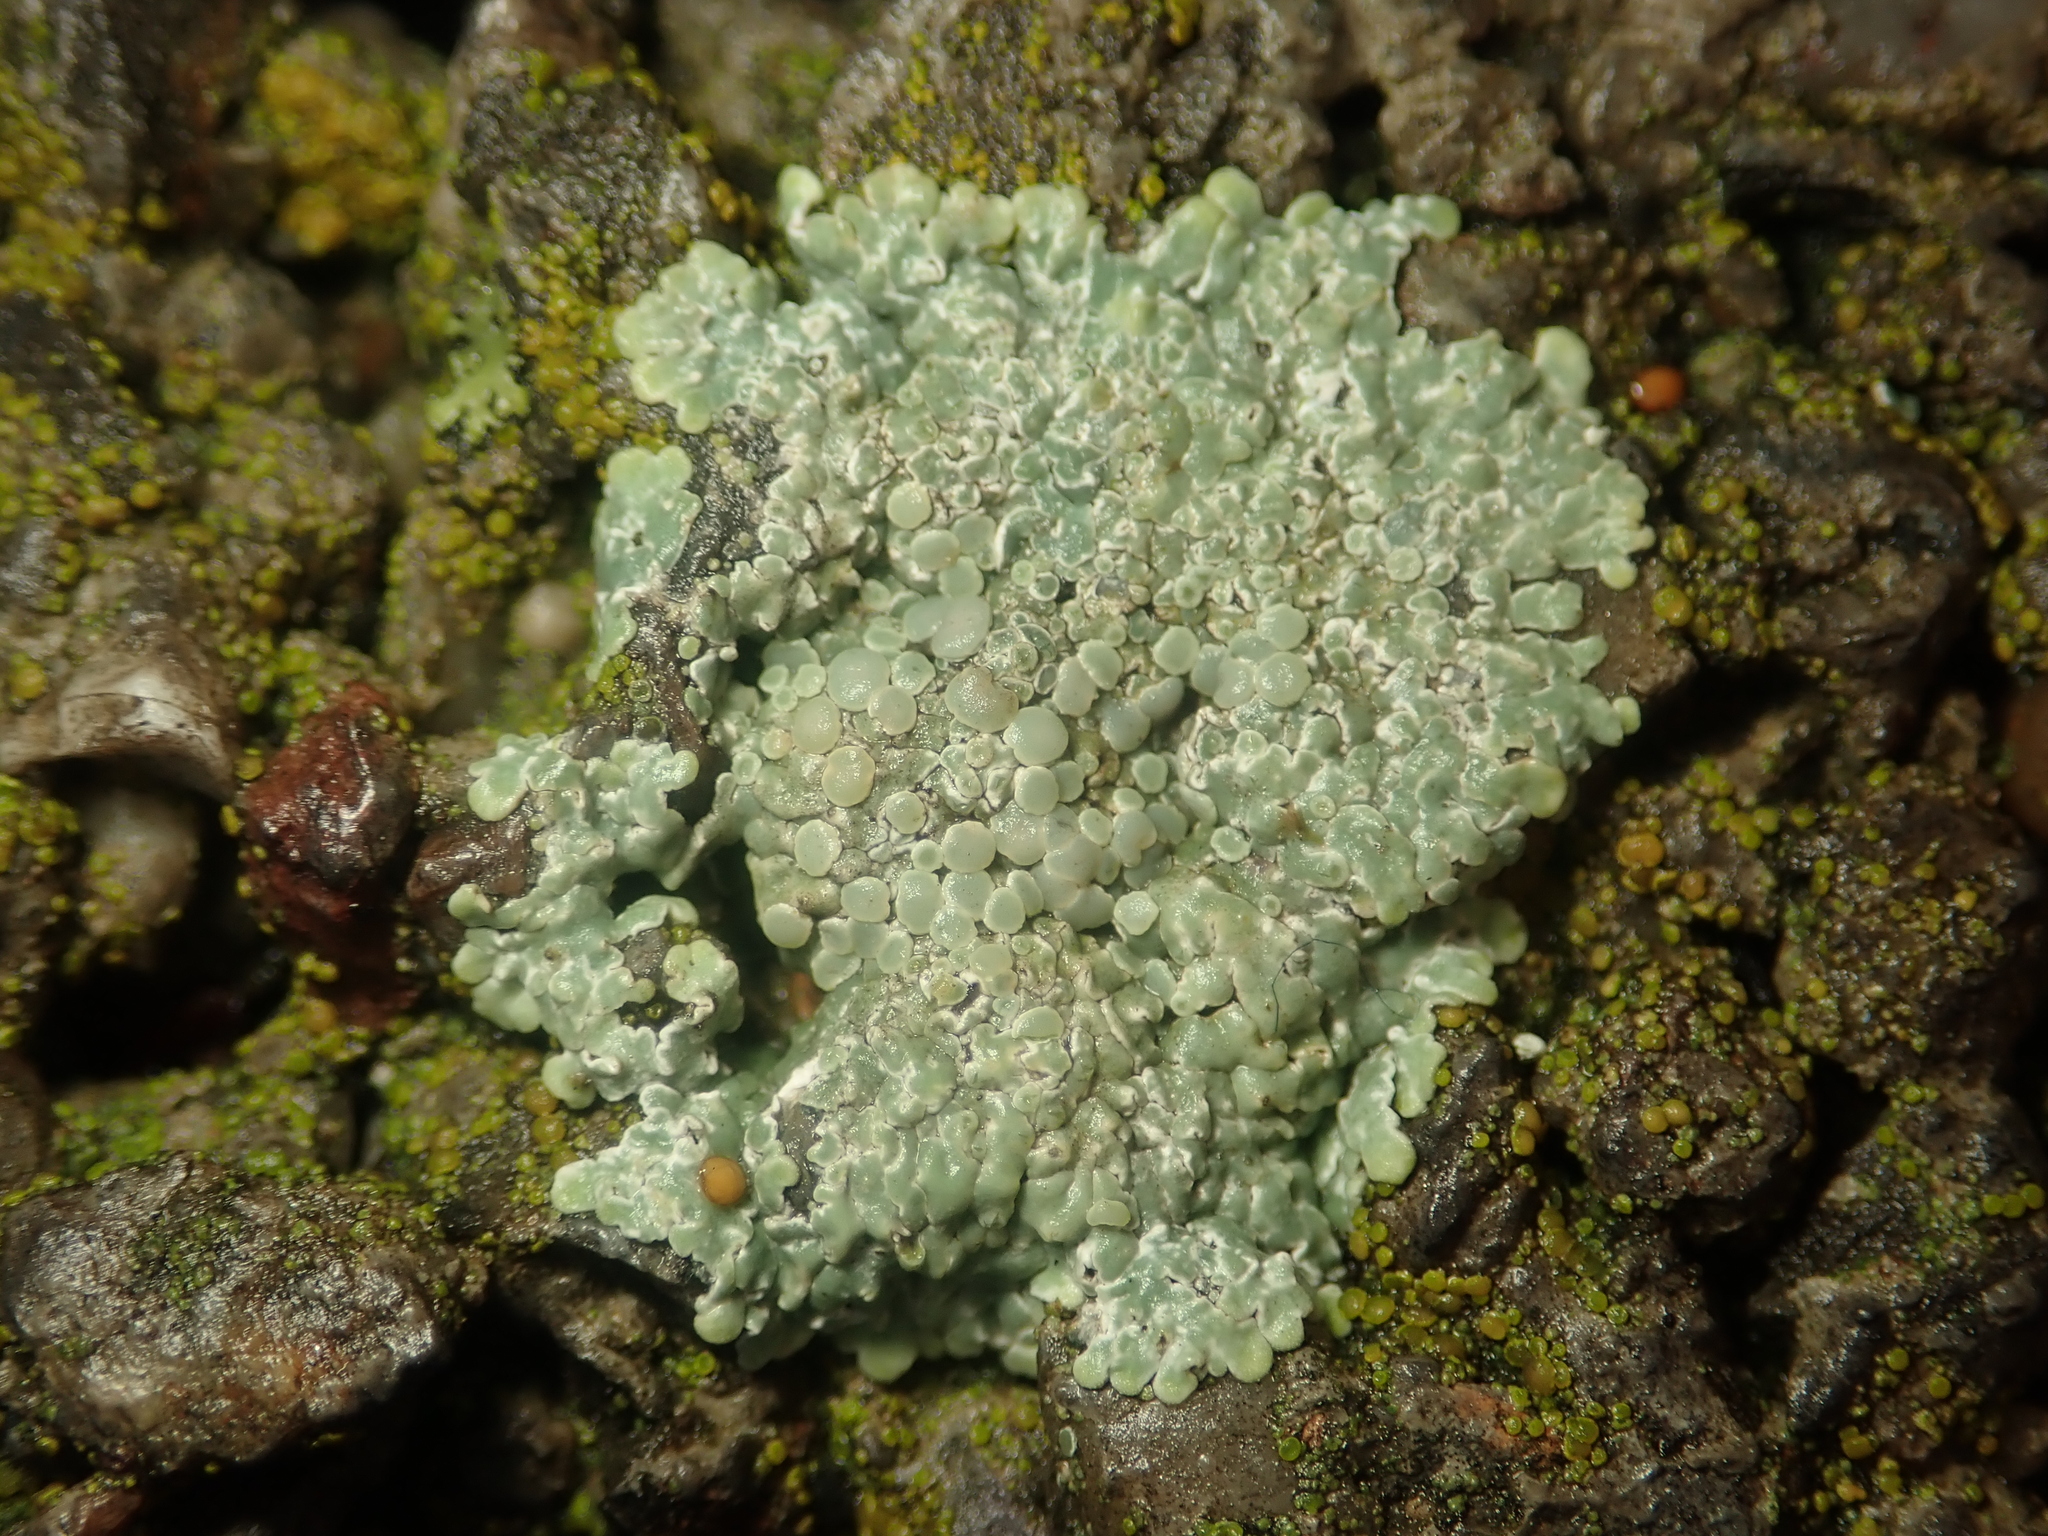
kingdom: Fungi
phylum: Ascomycota
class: Lecanoromycetes
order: Lecanorales
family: Lecanoraceae
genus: Protoparmeliopsis
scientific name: Protoparmeliopsis muralis
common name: Stonewall rim lichen
